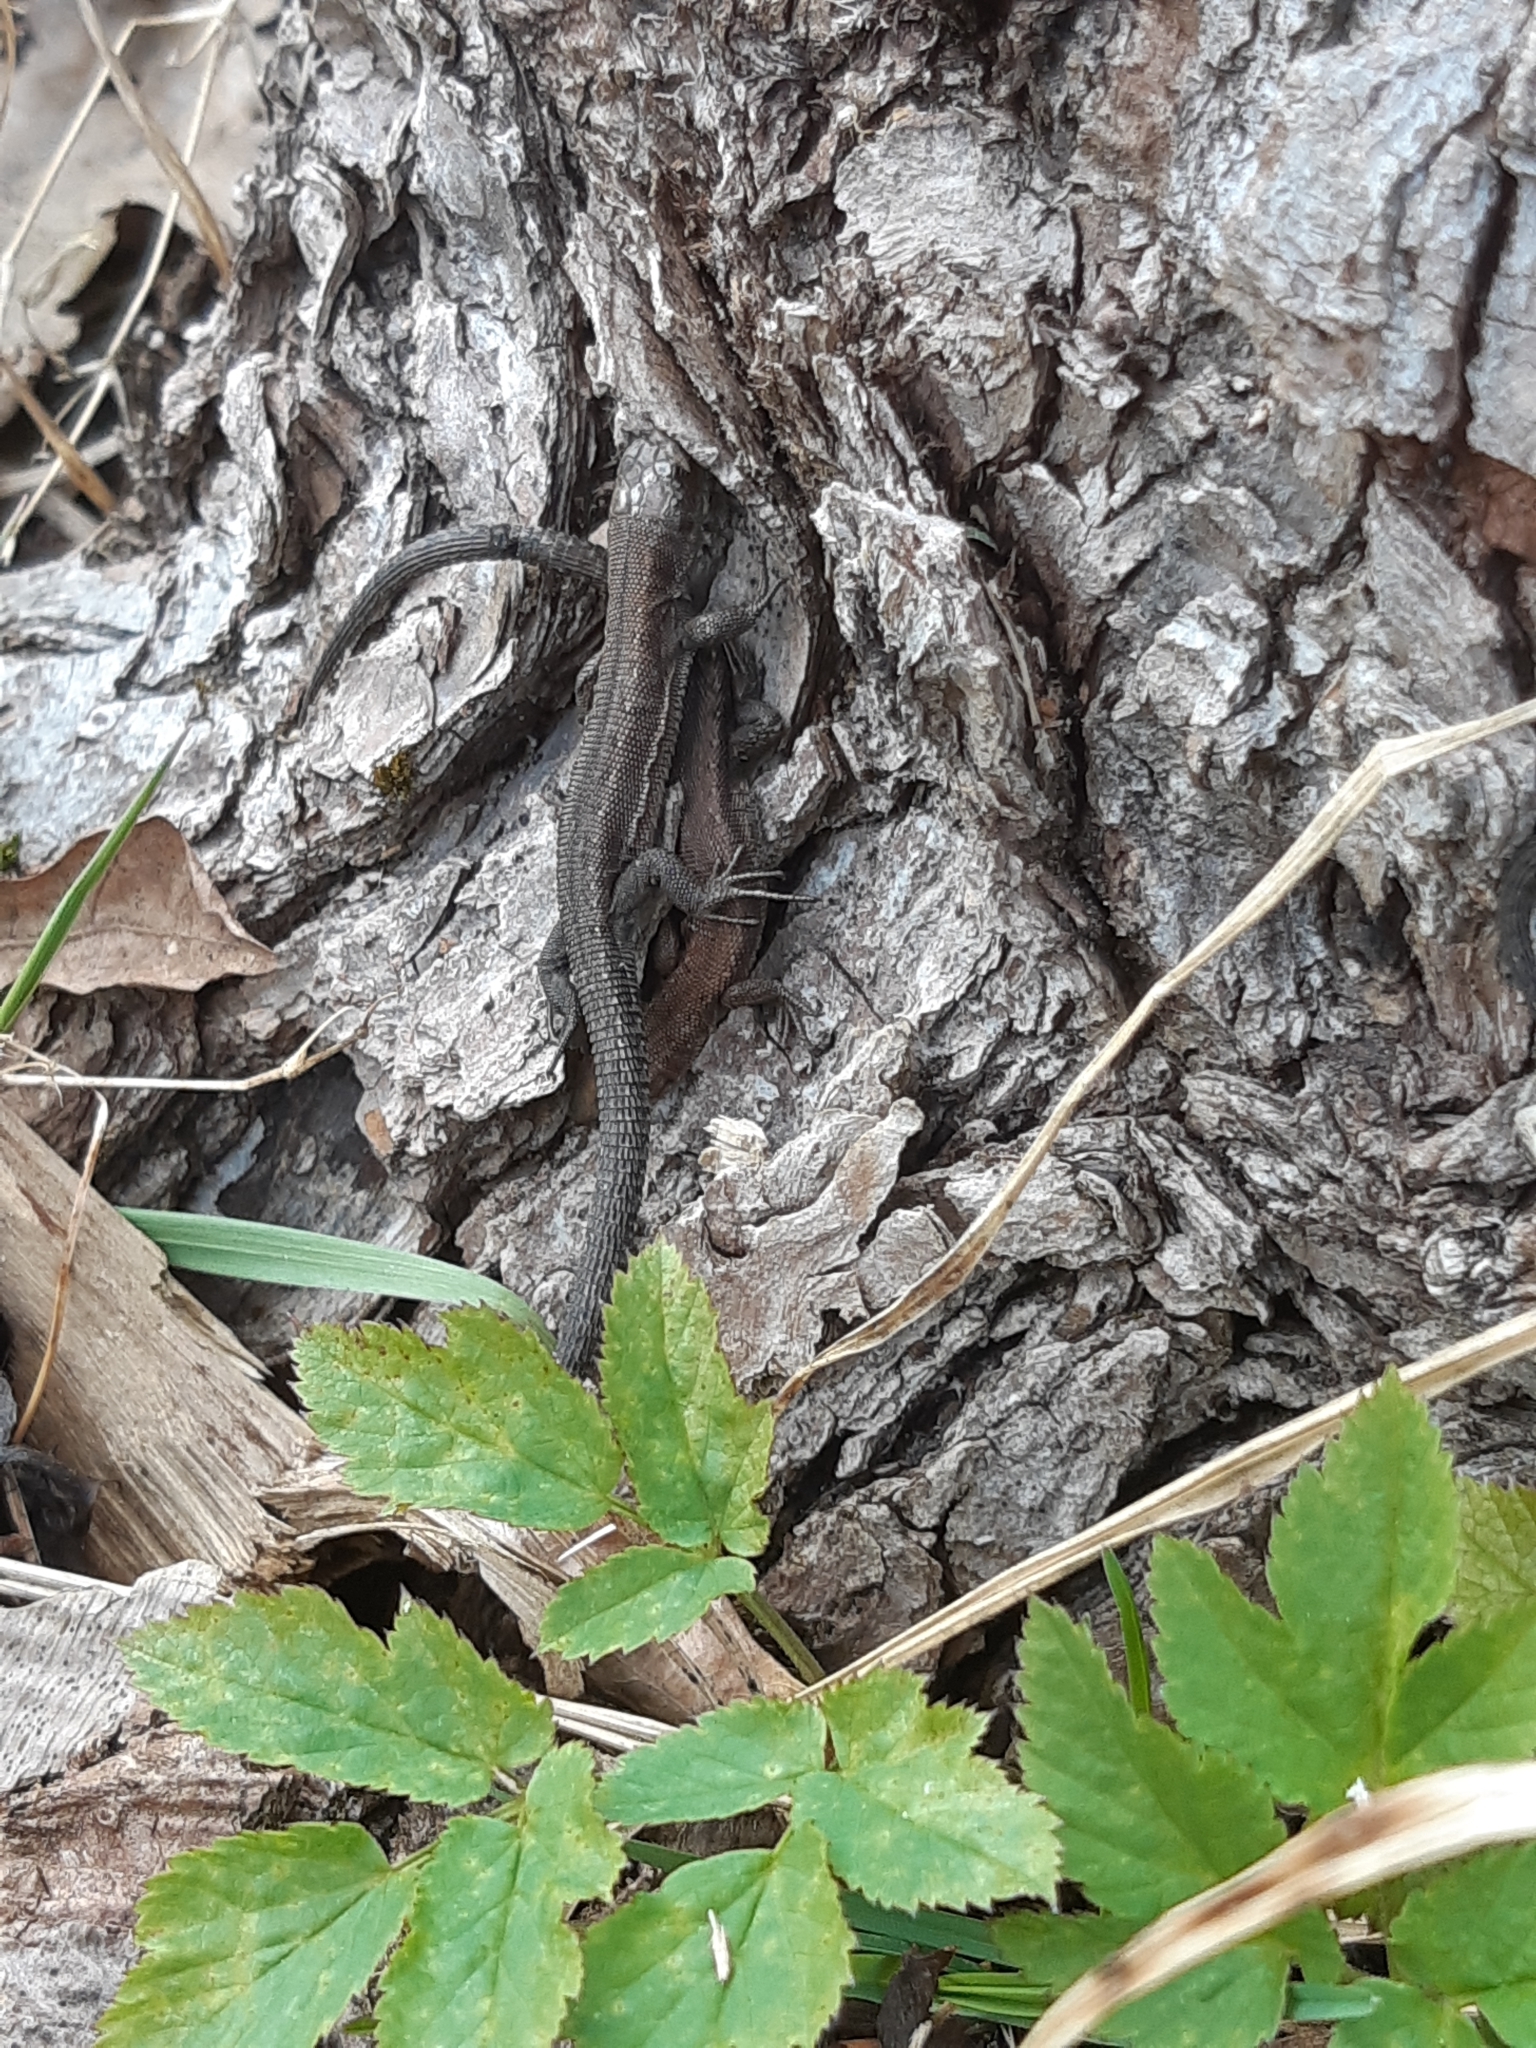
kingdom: Animalia
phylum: Chordata
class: Squamata
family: Lacertidae
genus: Zootoca
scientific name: Zootoca vivipara
